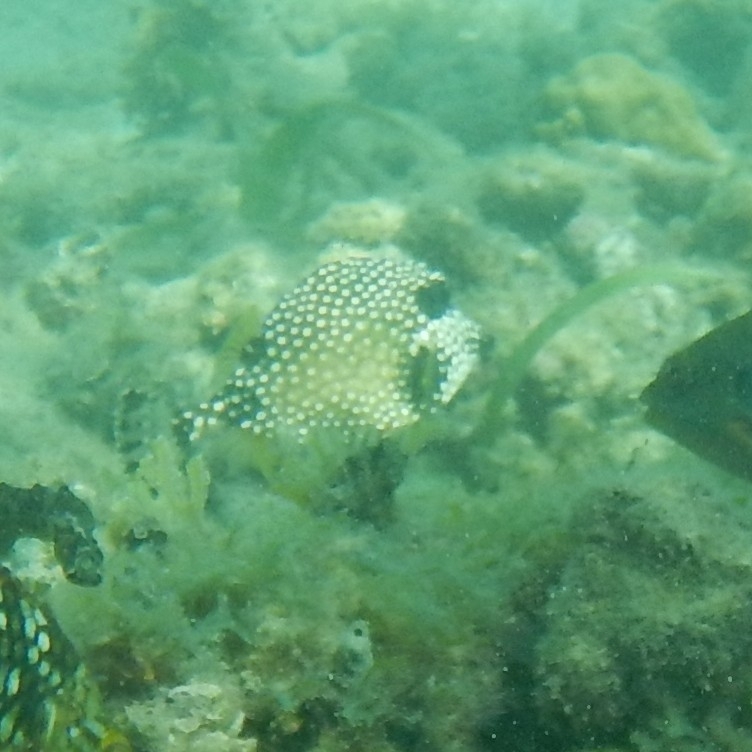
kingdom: Animalia
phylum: Chordata
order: Tetraodontiformes
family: Ostraciidae
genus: Lactophrys
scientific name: Lactophrys triqueter
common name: Smooth trunkfish
